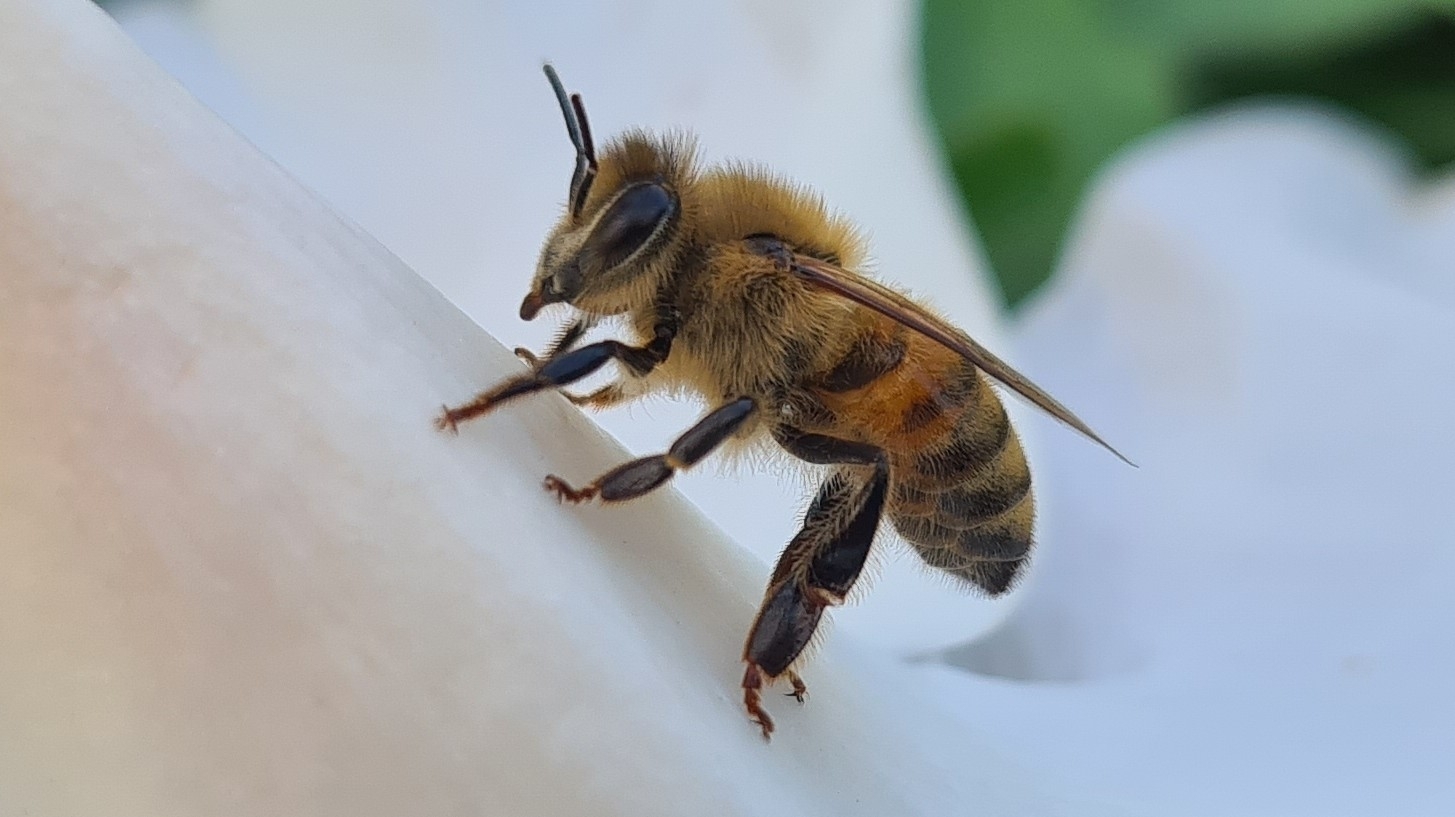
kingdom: Animalia
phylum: Arthropoda
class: Insecta
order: Hymenoptera
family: Apidae
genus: Apis
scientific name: Apis mellifera
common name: Honey bee
